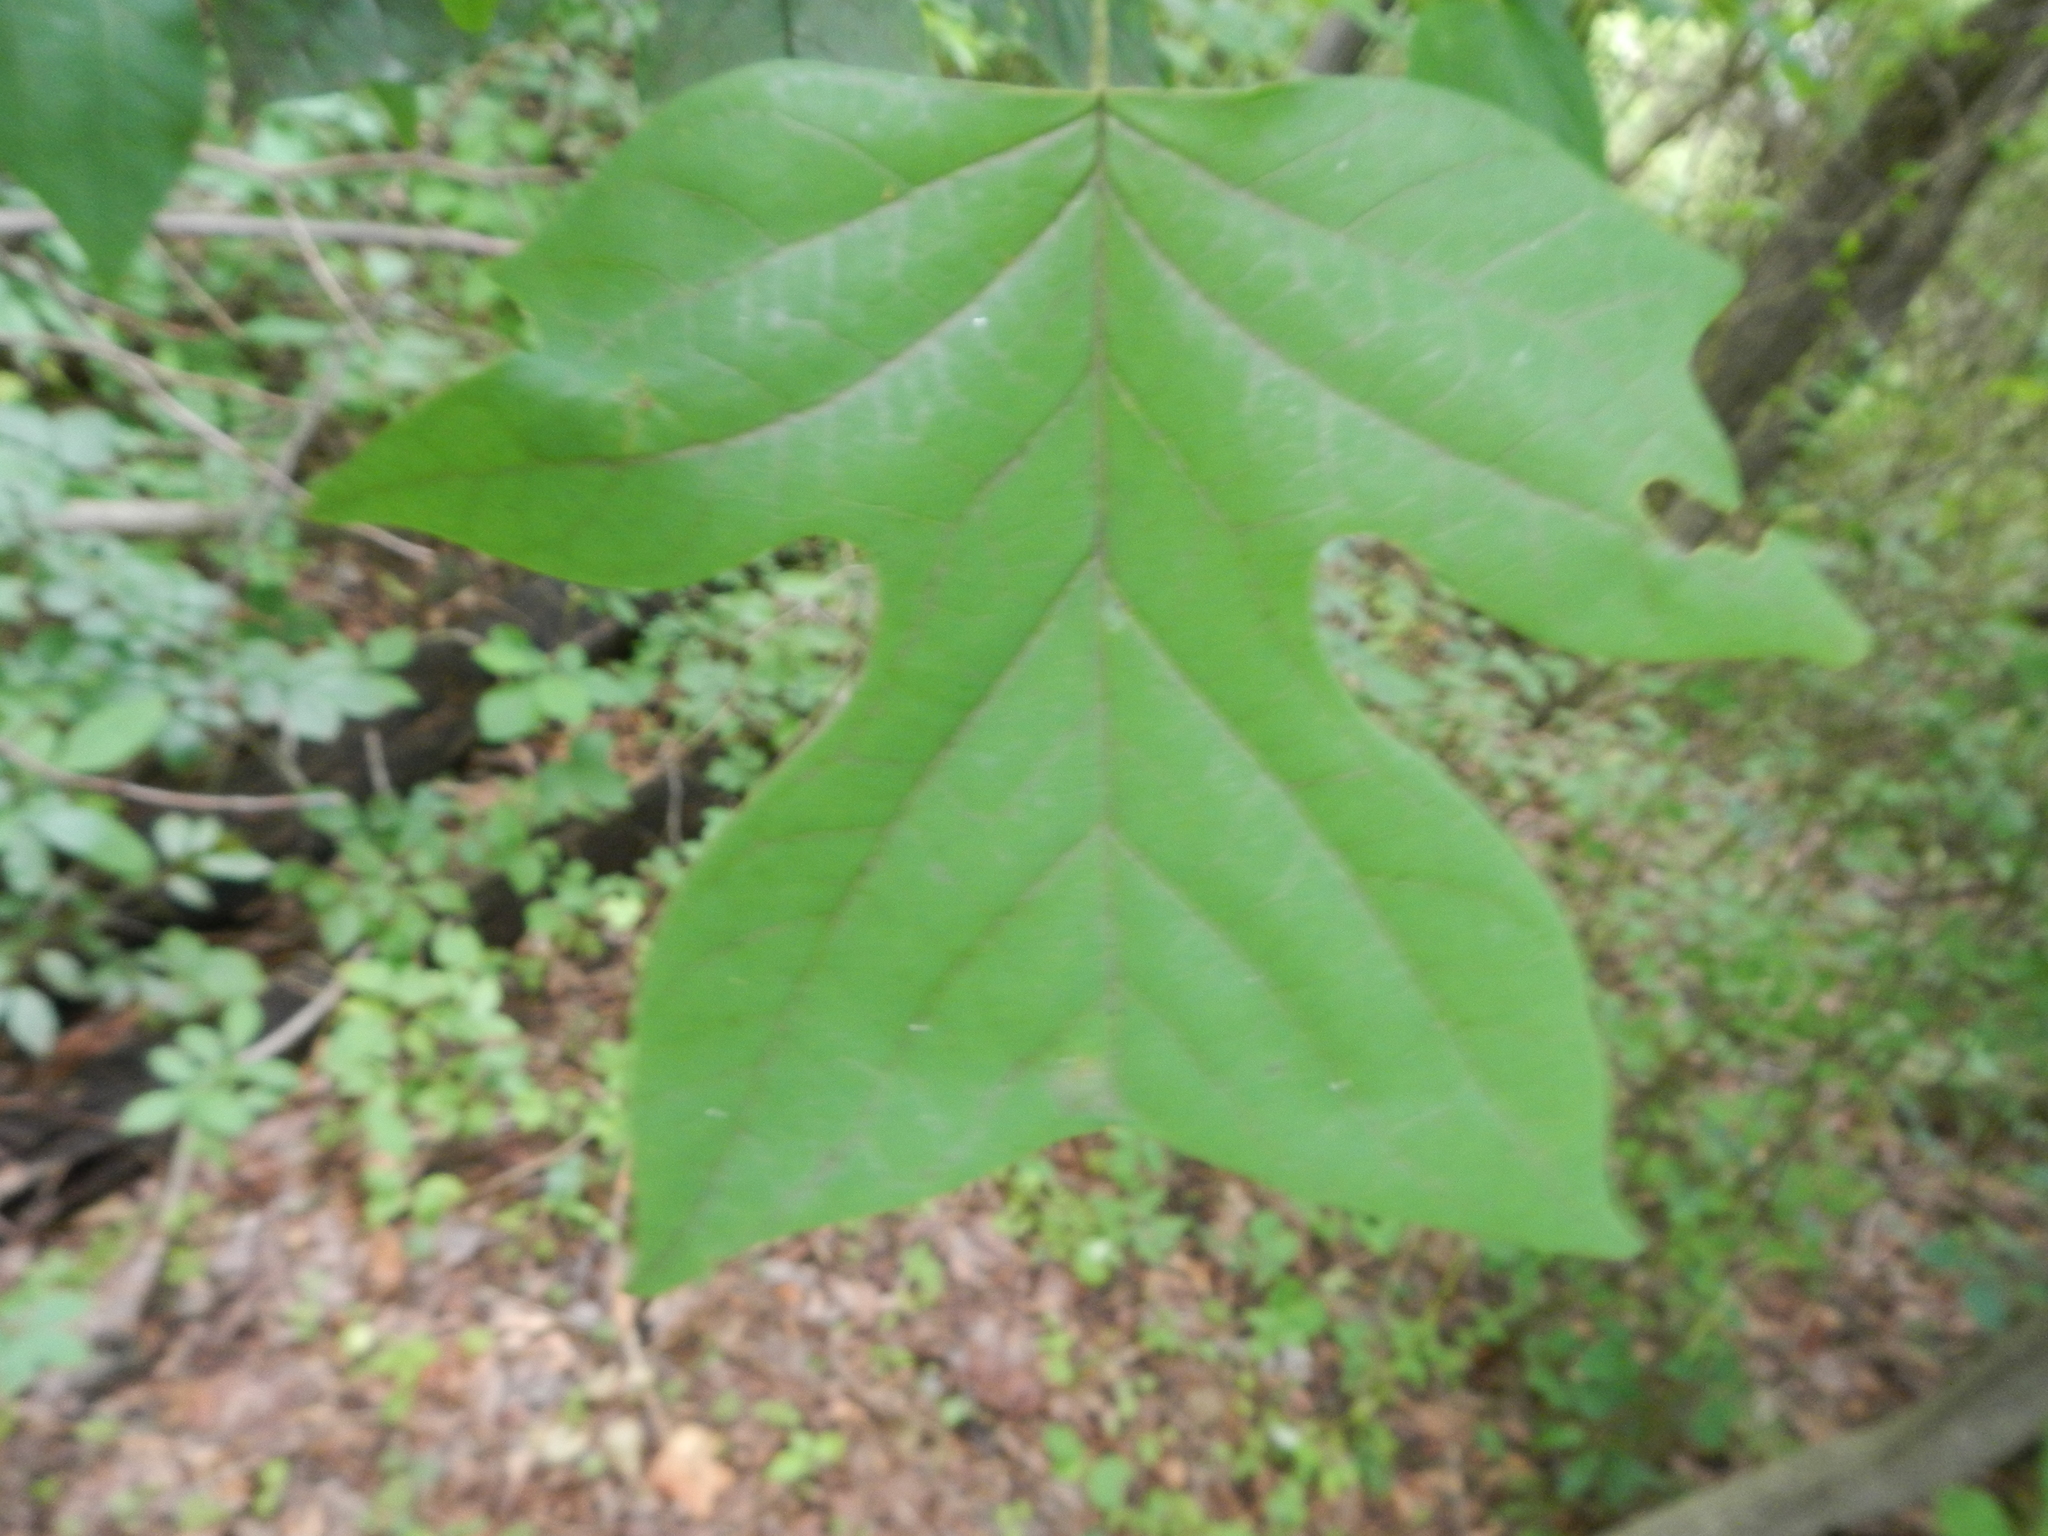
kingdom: Plantae
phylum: Tracheophyta
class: Magnoliopsida
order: Magnoliales
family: Magnoliaceae
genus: Liriodendron
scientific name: Liriodendron tulipifera
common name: Tulip tree
